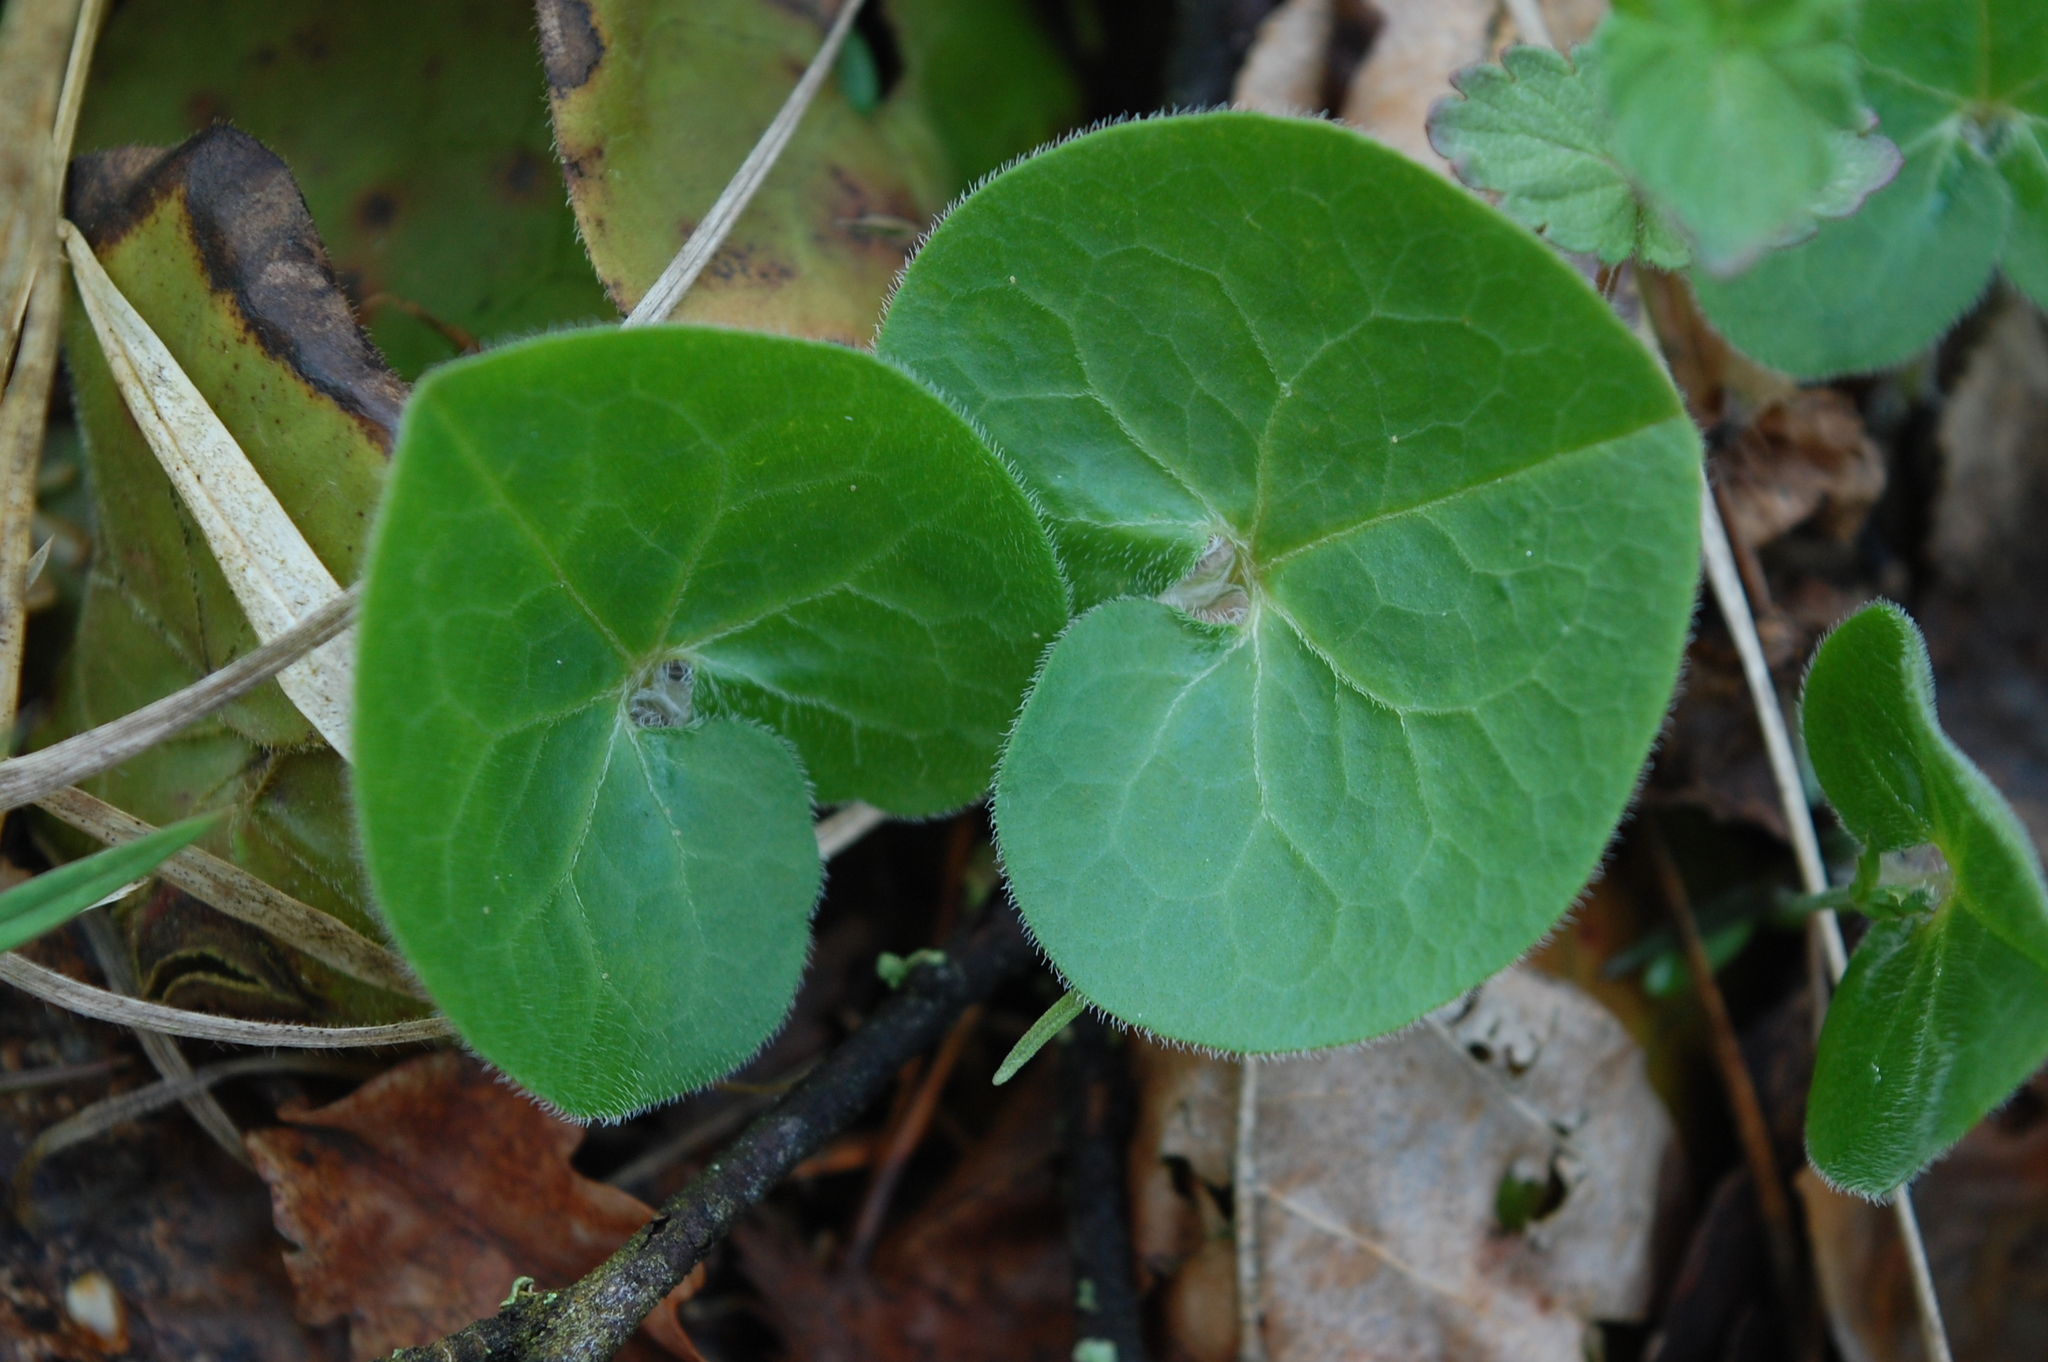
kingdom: Plantae
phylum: Tracheophyta
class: Magnoliopsida
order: Piperales
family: Aristolochiaceae
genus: Asarum
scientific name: Asarum europaeum
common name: Asarabacca
